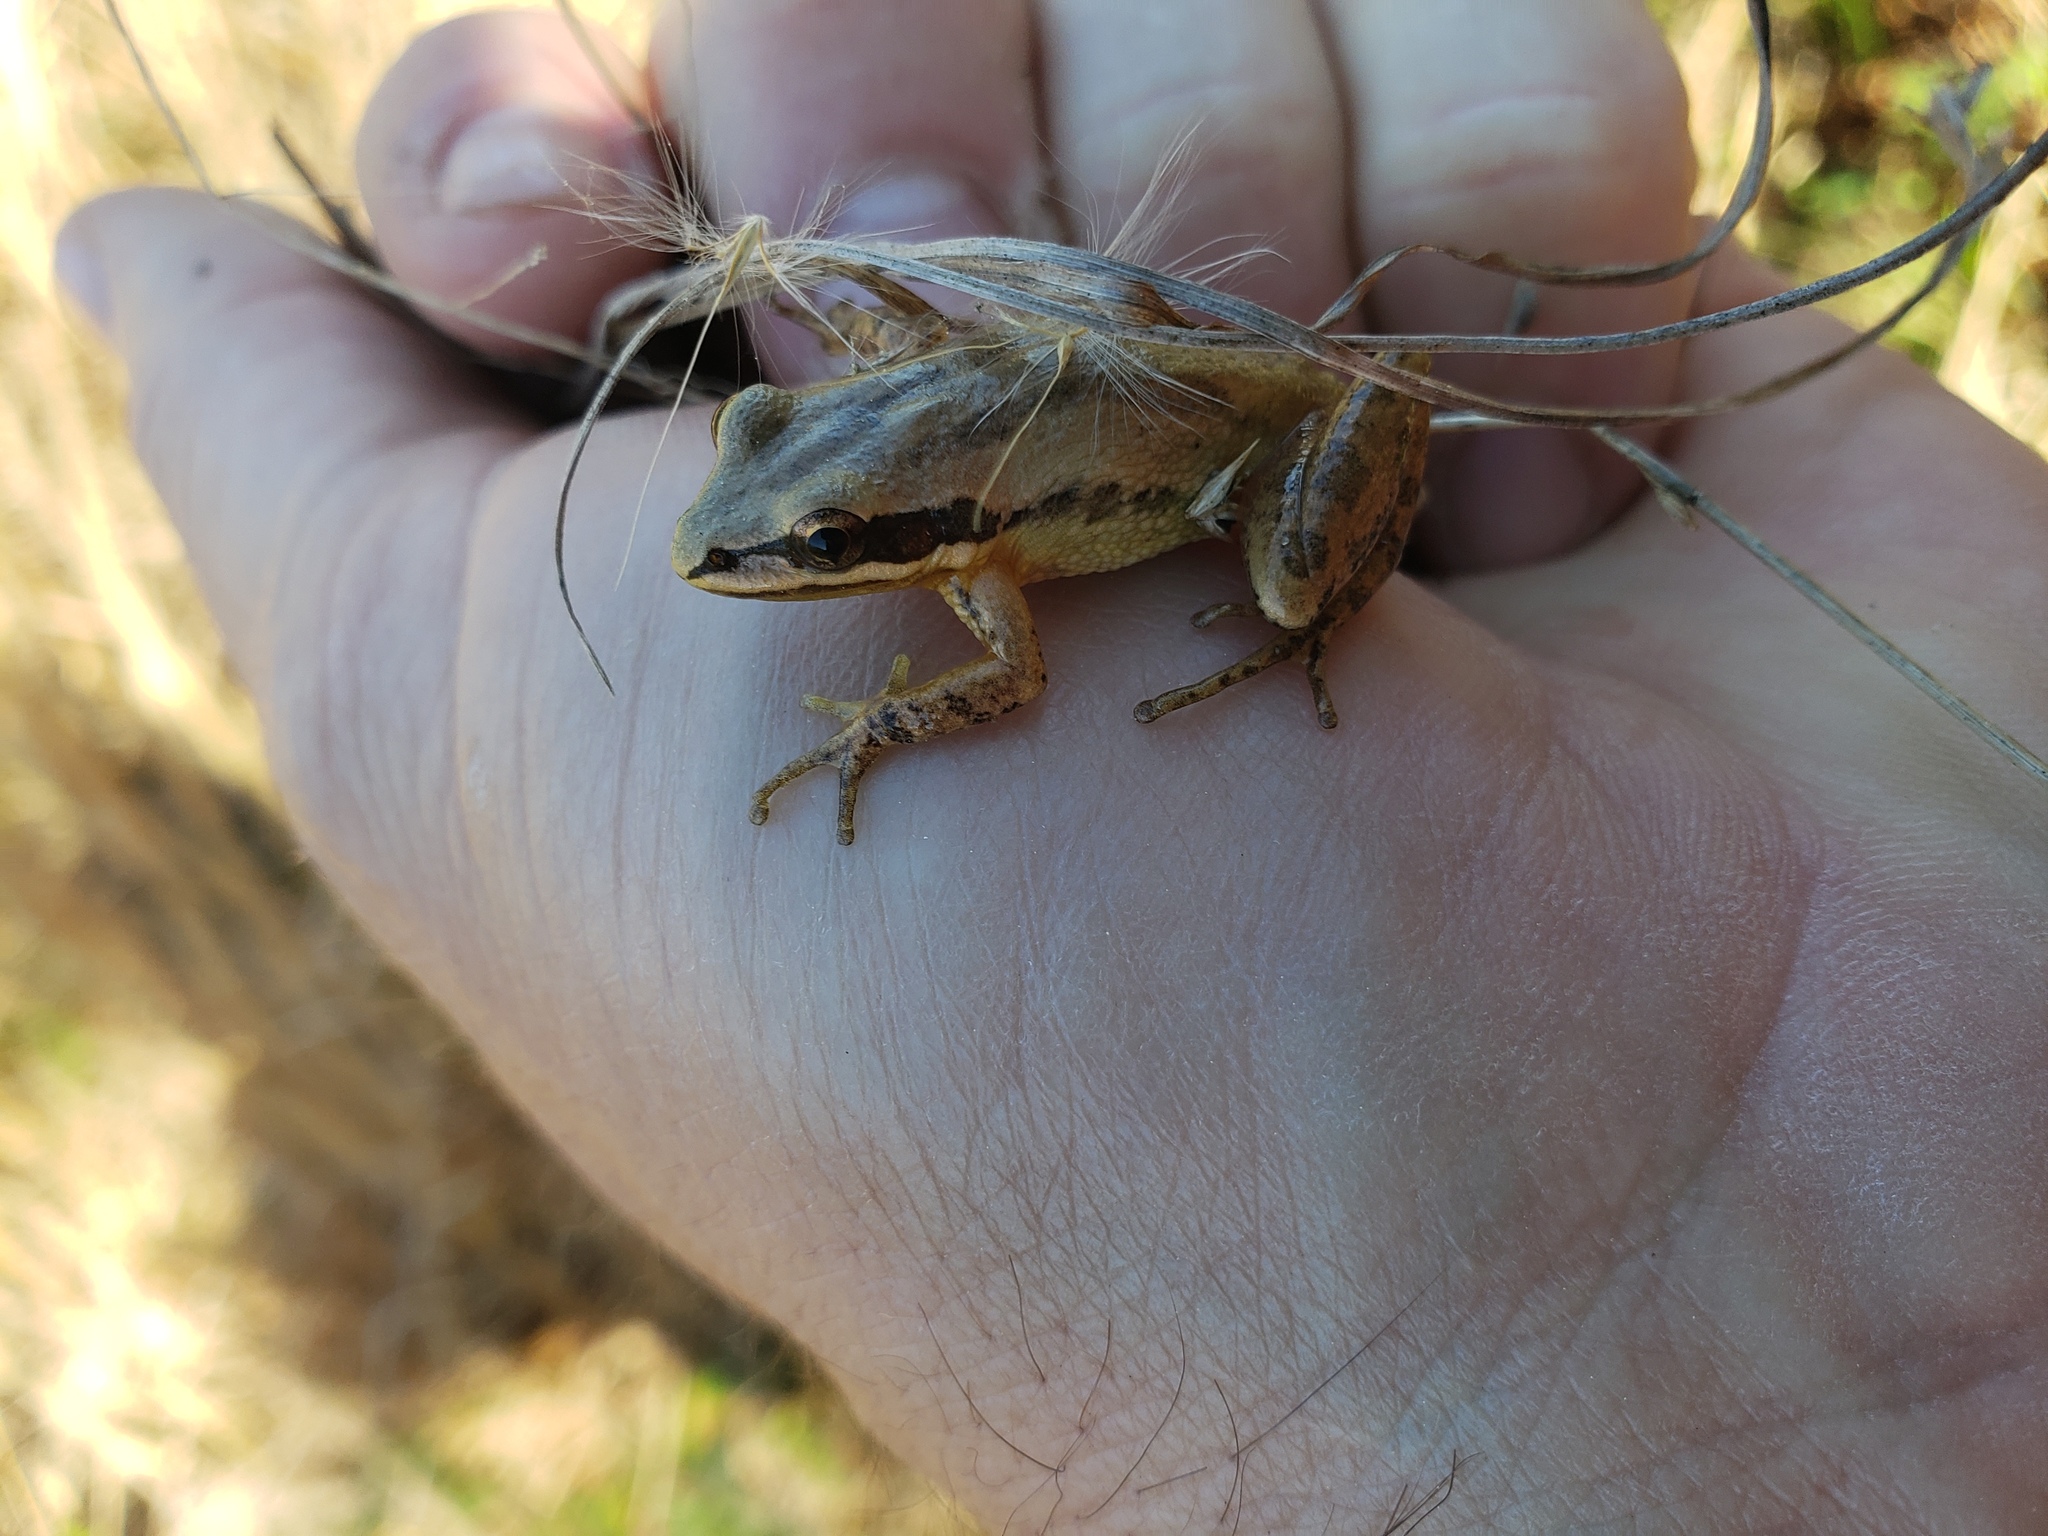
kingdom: Animalia
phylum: Chordata
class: Amphibia
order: Anura
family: Hylidae
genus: Pseudacris
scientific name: Pseudacris fouquettei
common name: Cajun chorus frog
